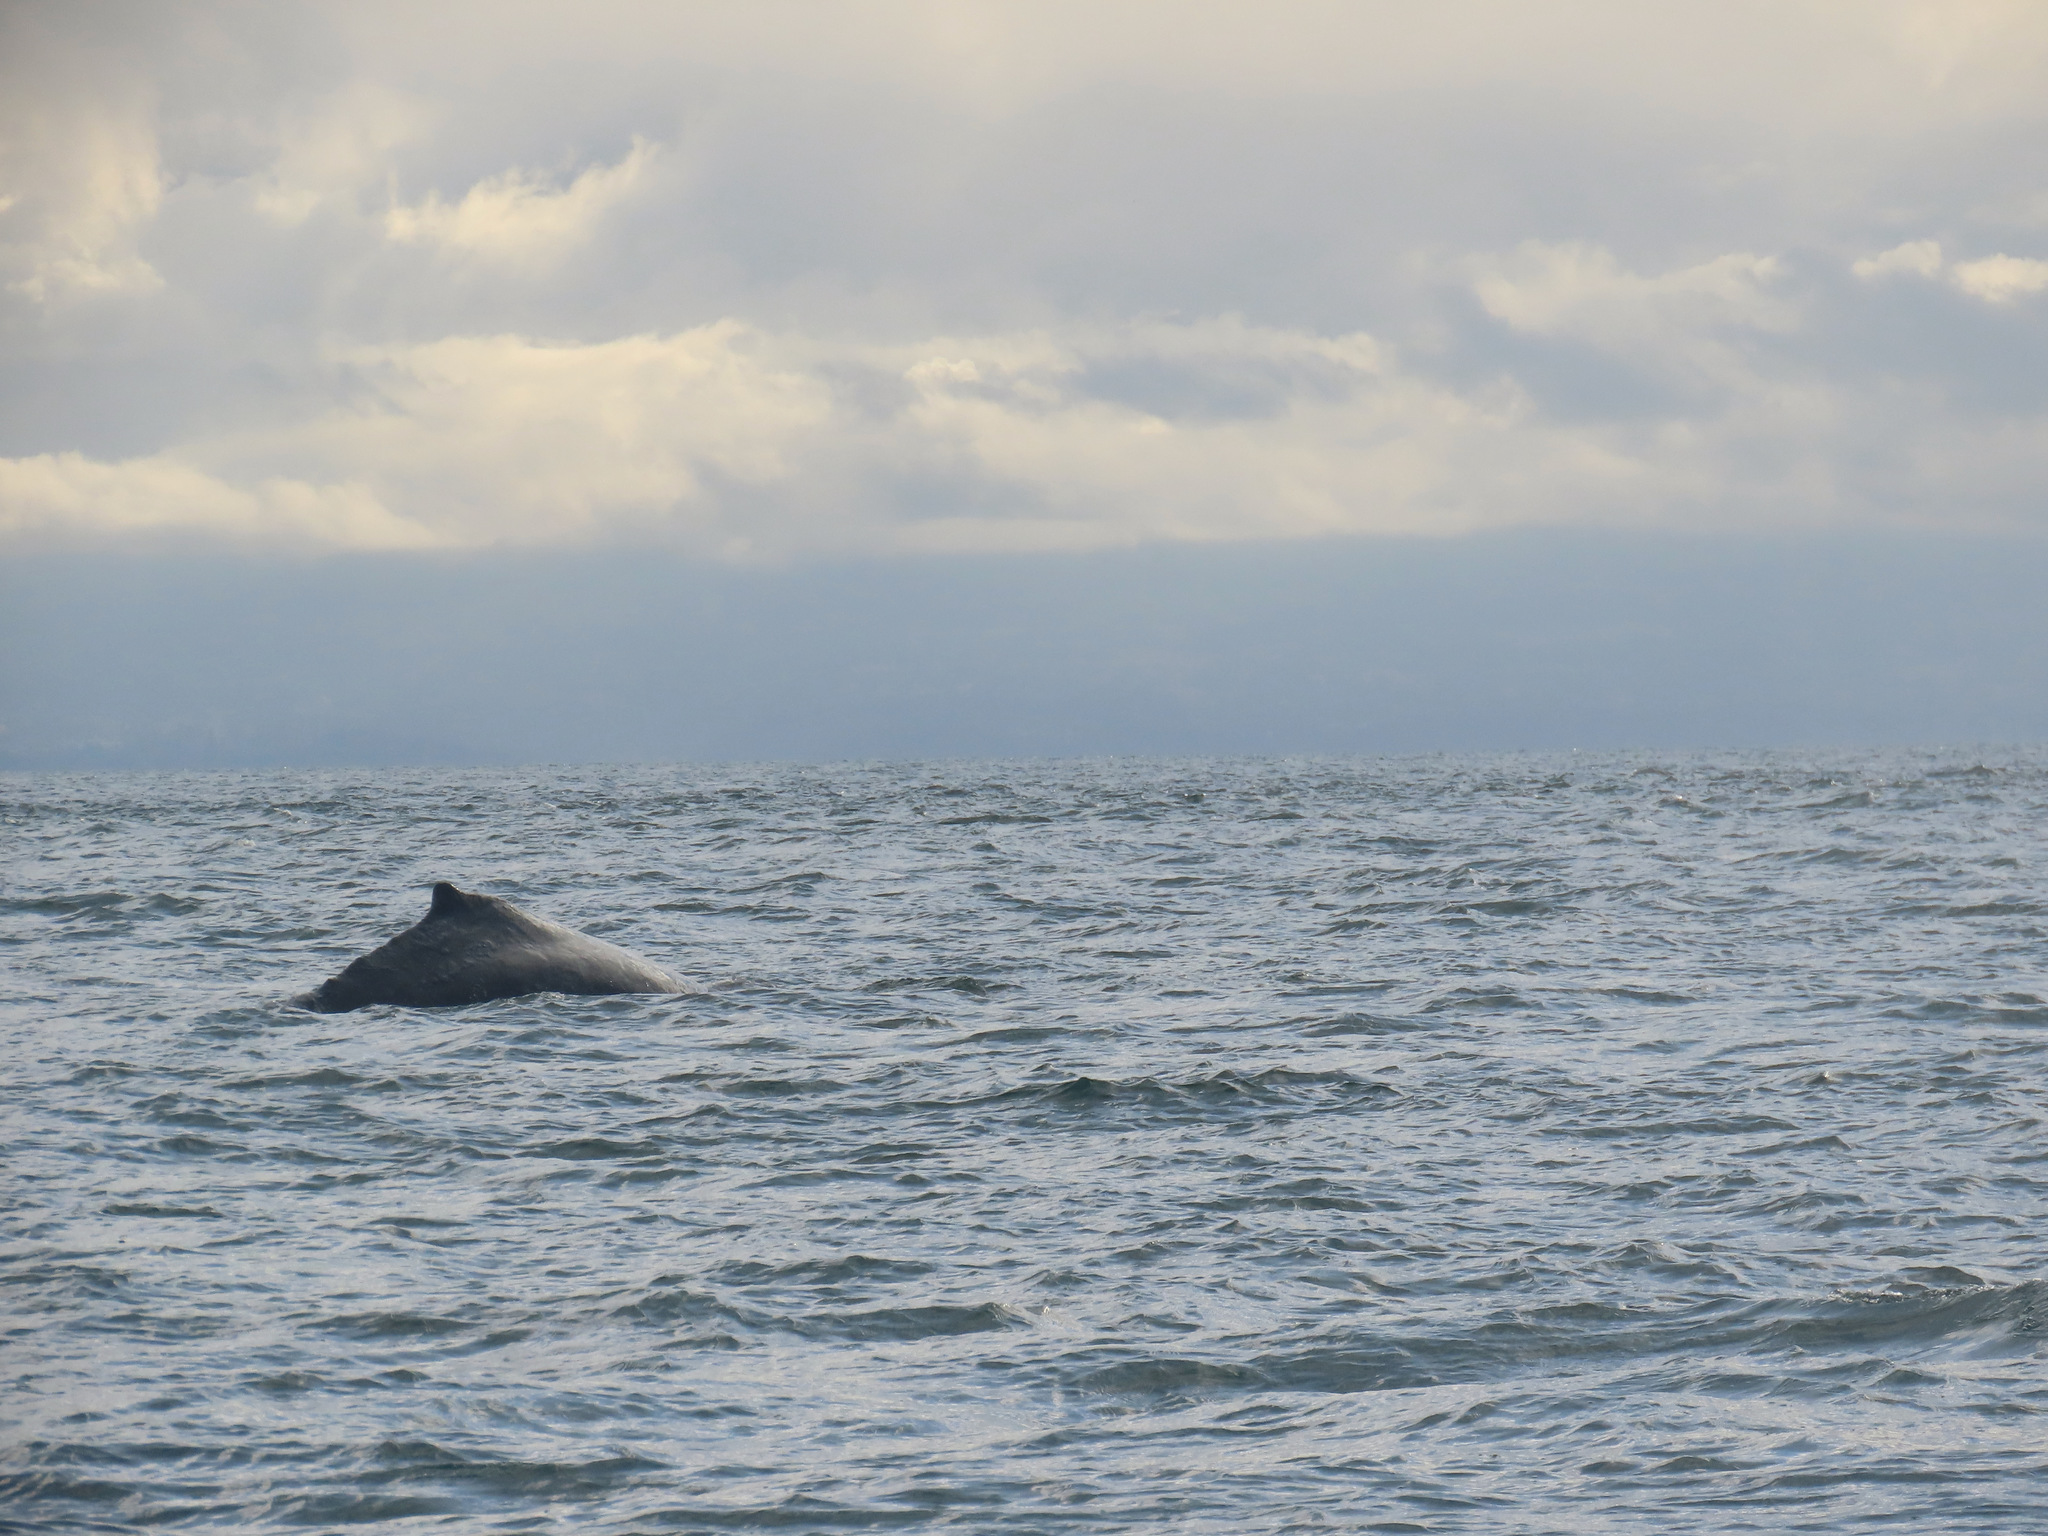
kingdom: Animalia
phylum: Chordata
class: Mammalia
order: Cetacea
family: Balaenopteridae
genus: Megaptera
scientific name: Megaptera novaeangliae
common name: Humpback whale
